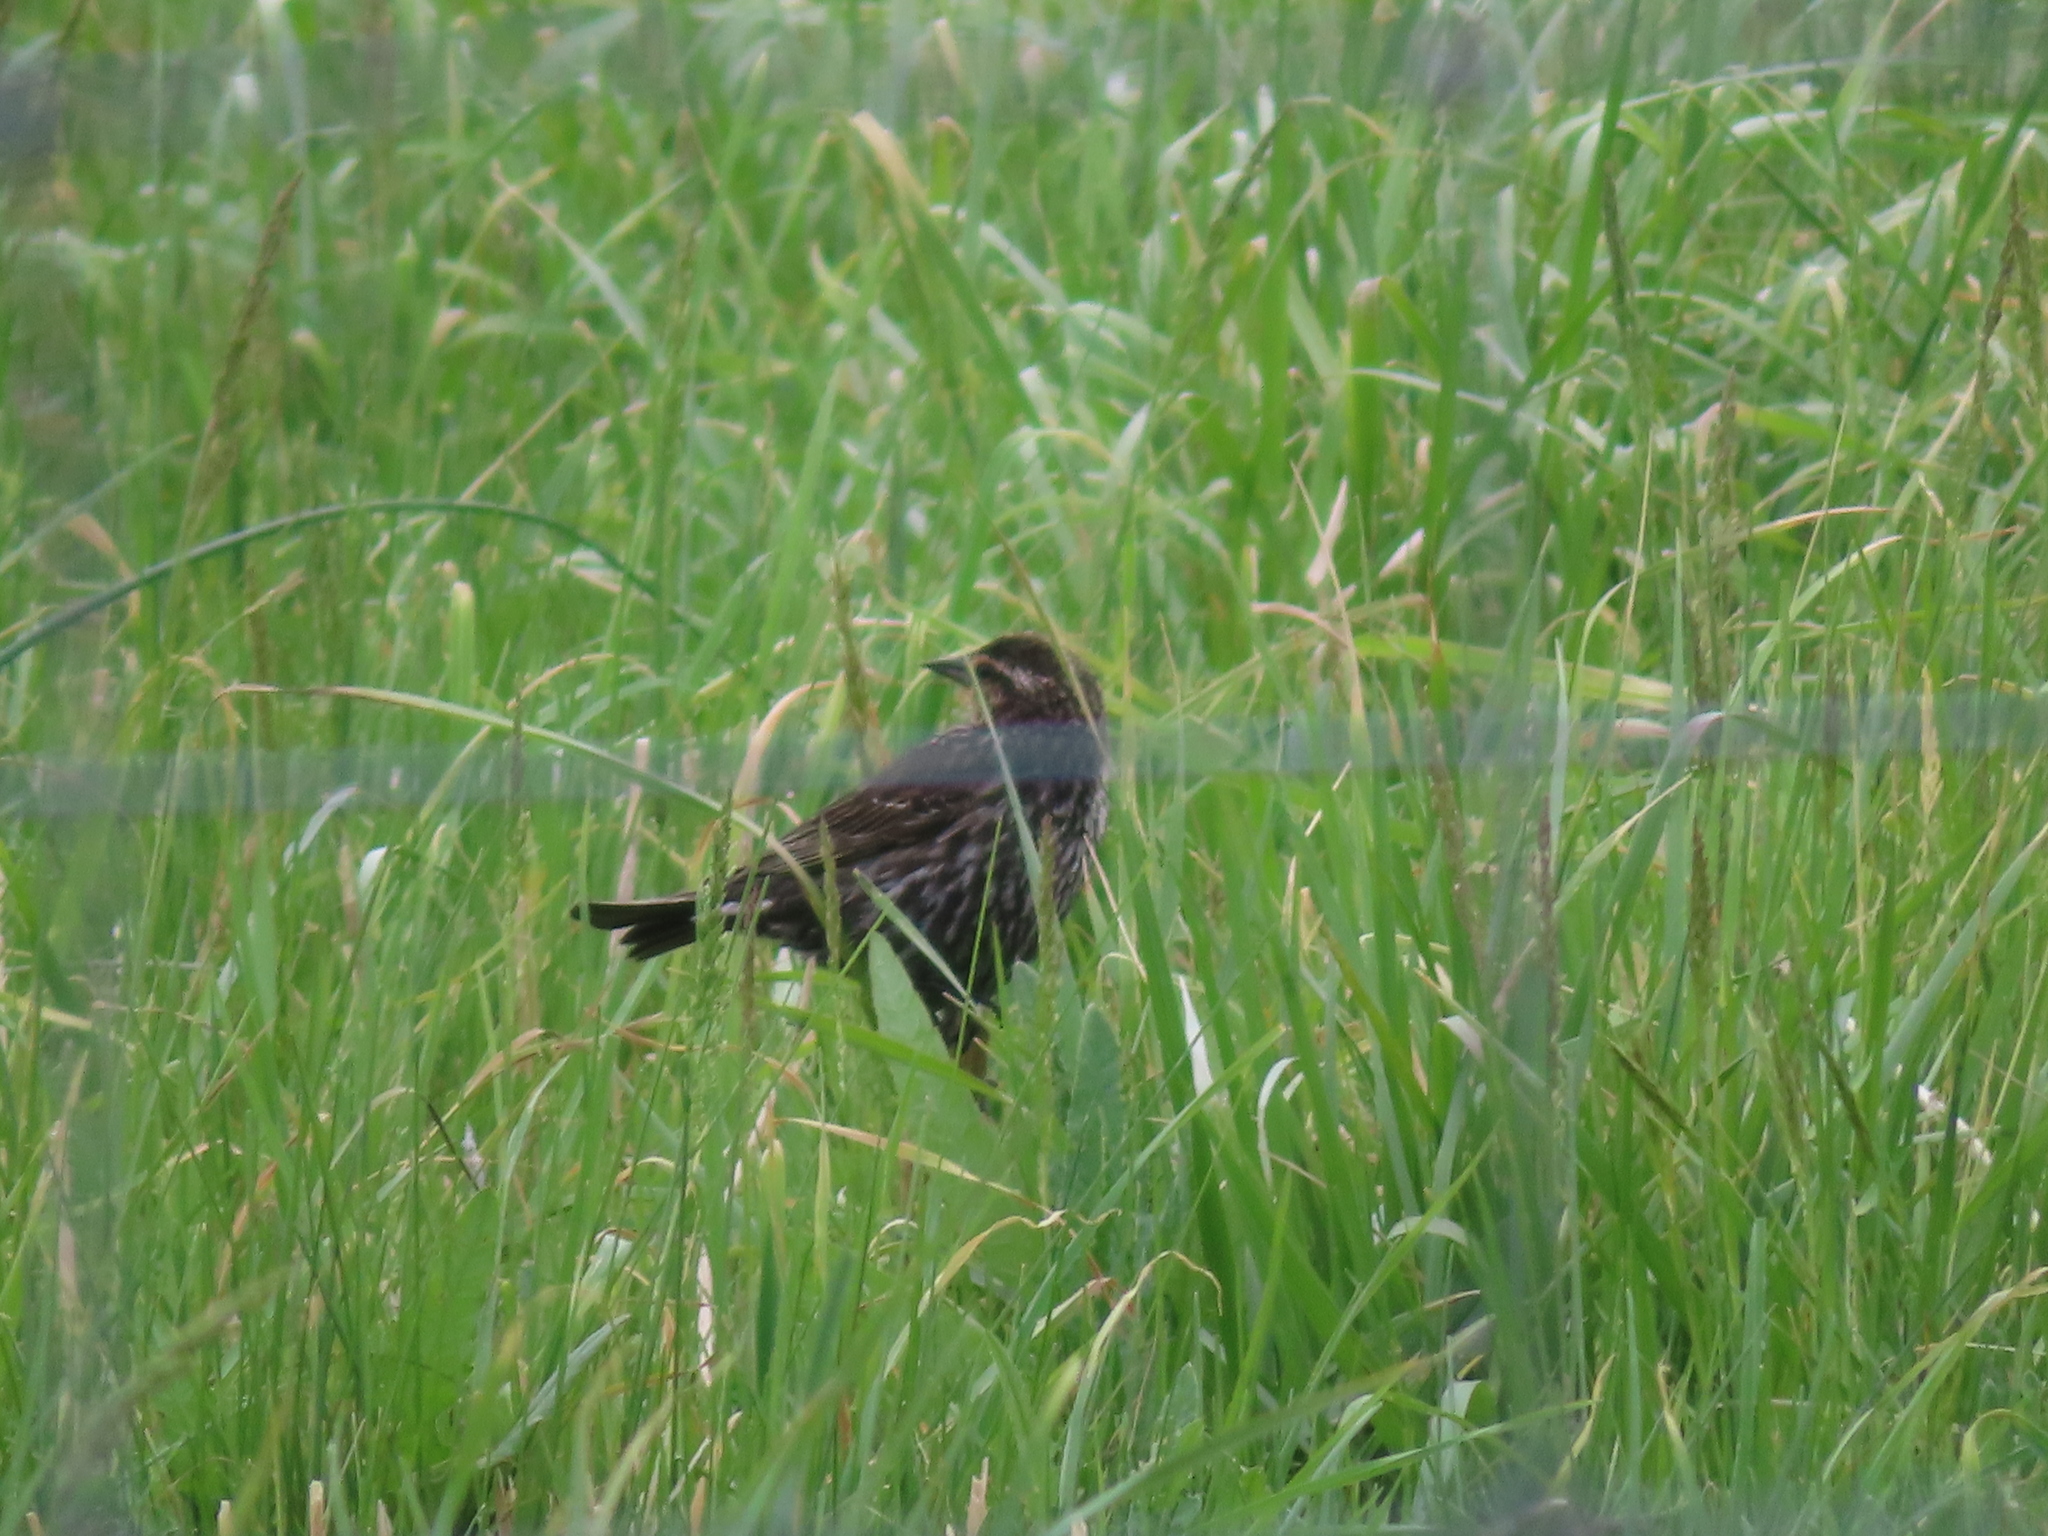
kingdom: Animalia
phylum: Chordata
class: Aves
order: Passeriformes
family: Icteridae
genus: Agelaius
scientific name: Agelaius phoeniceus
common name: Red-winged blackbird
